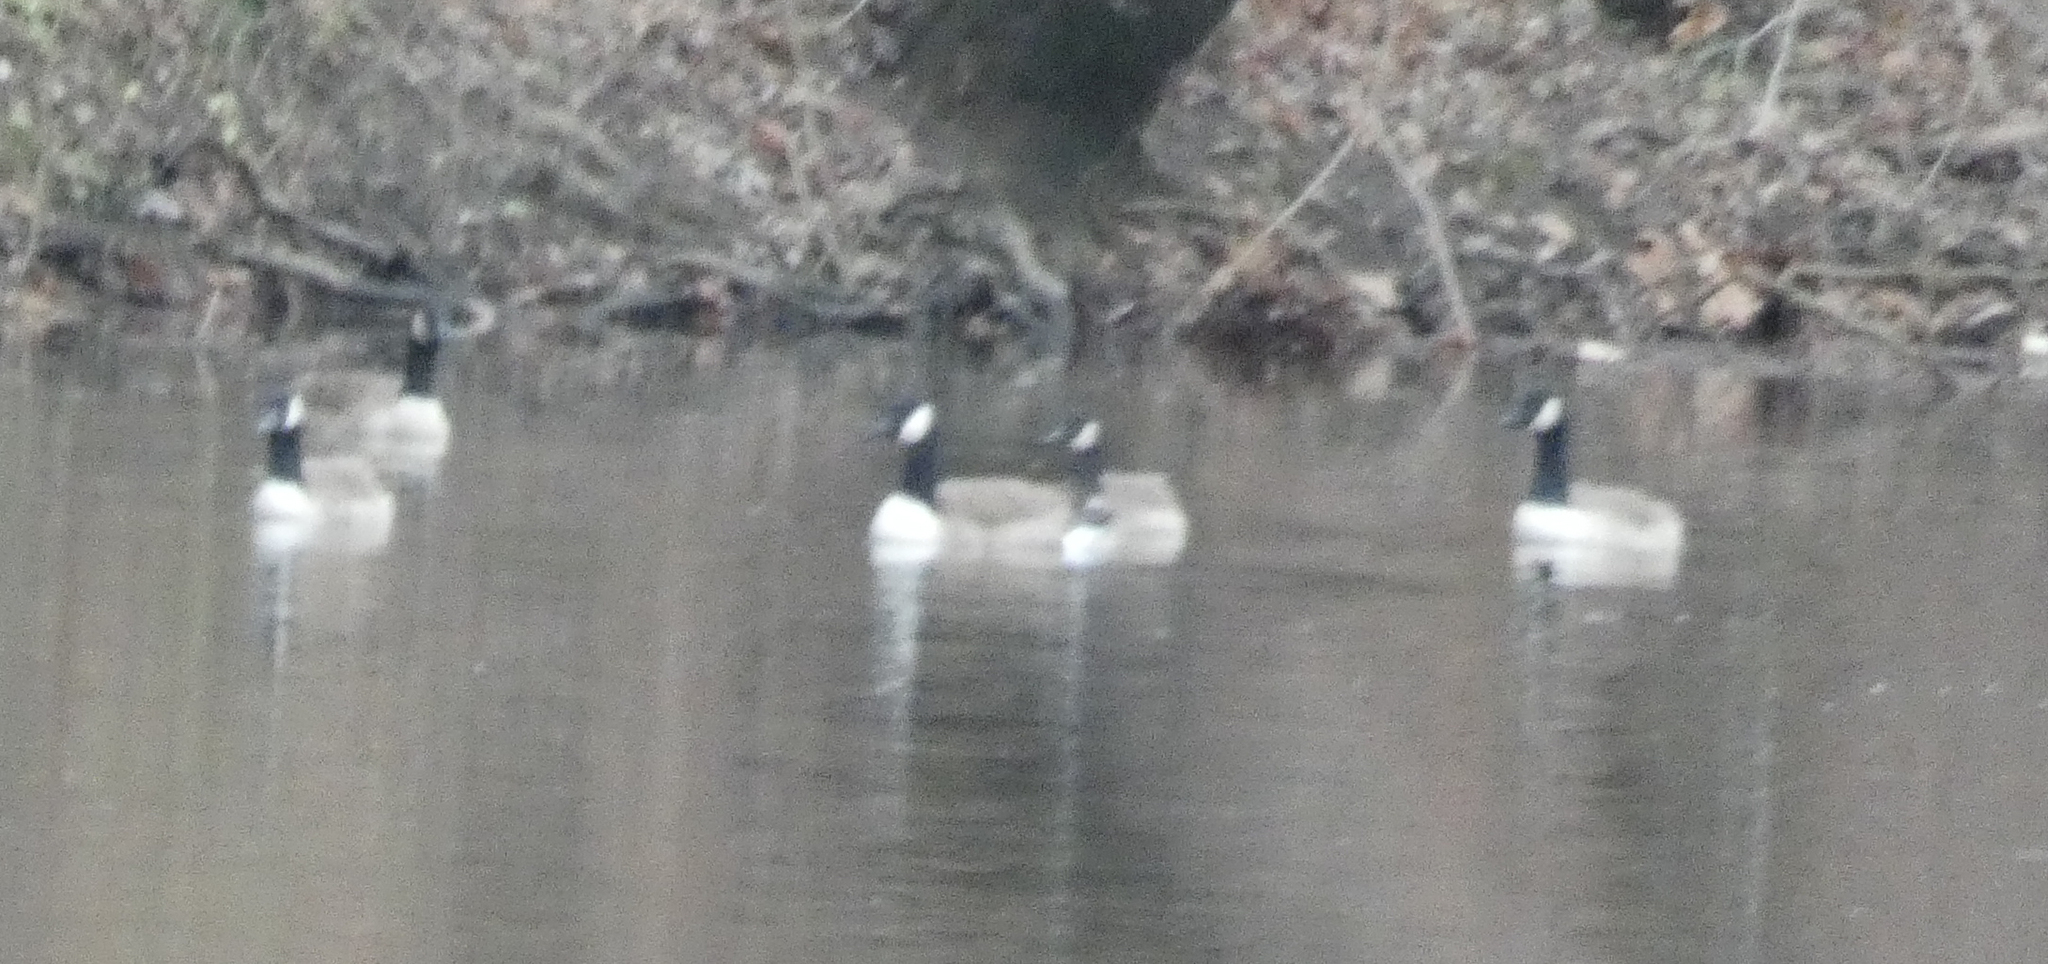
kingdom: Animalia
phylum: Chordata
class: Aves
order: Anseriformes
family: Anatidae
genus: Branta
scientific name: Branta canadensis
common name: Canada goose
